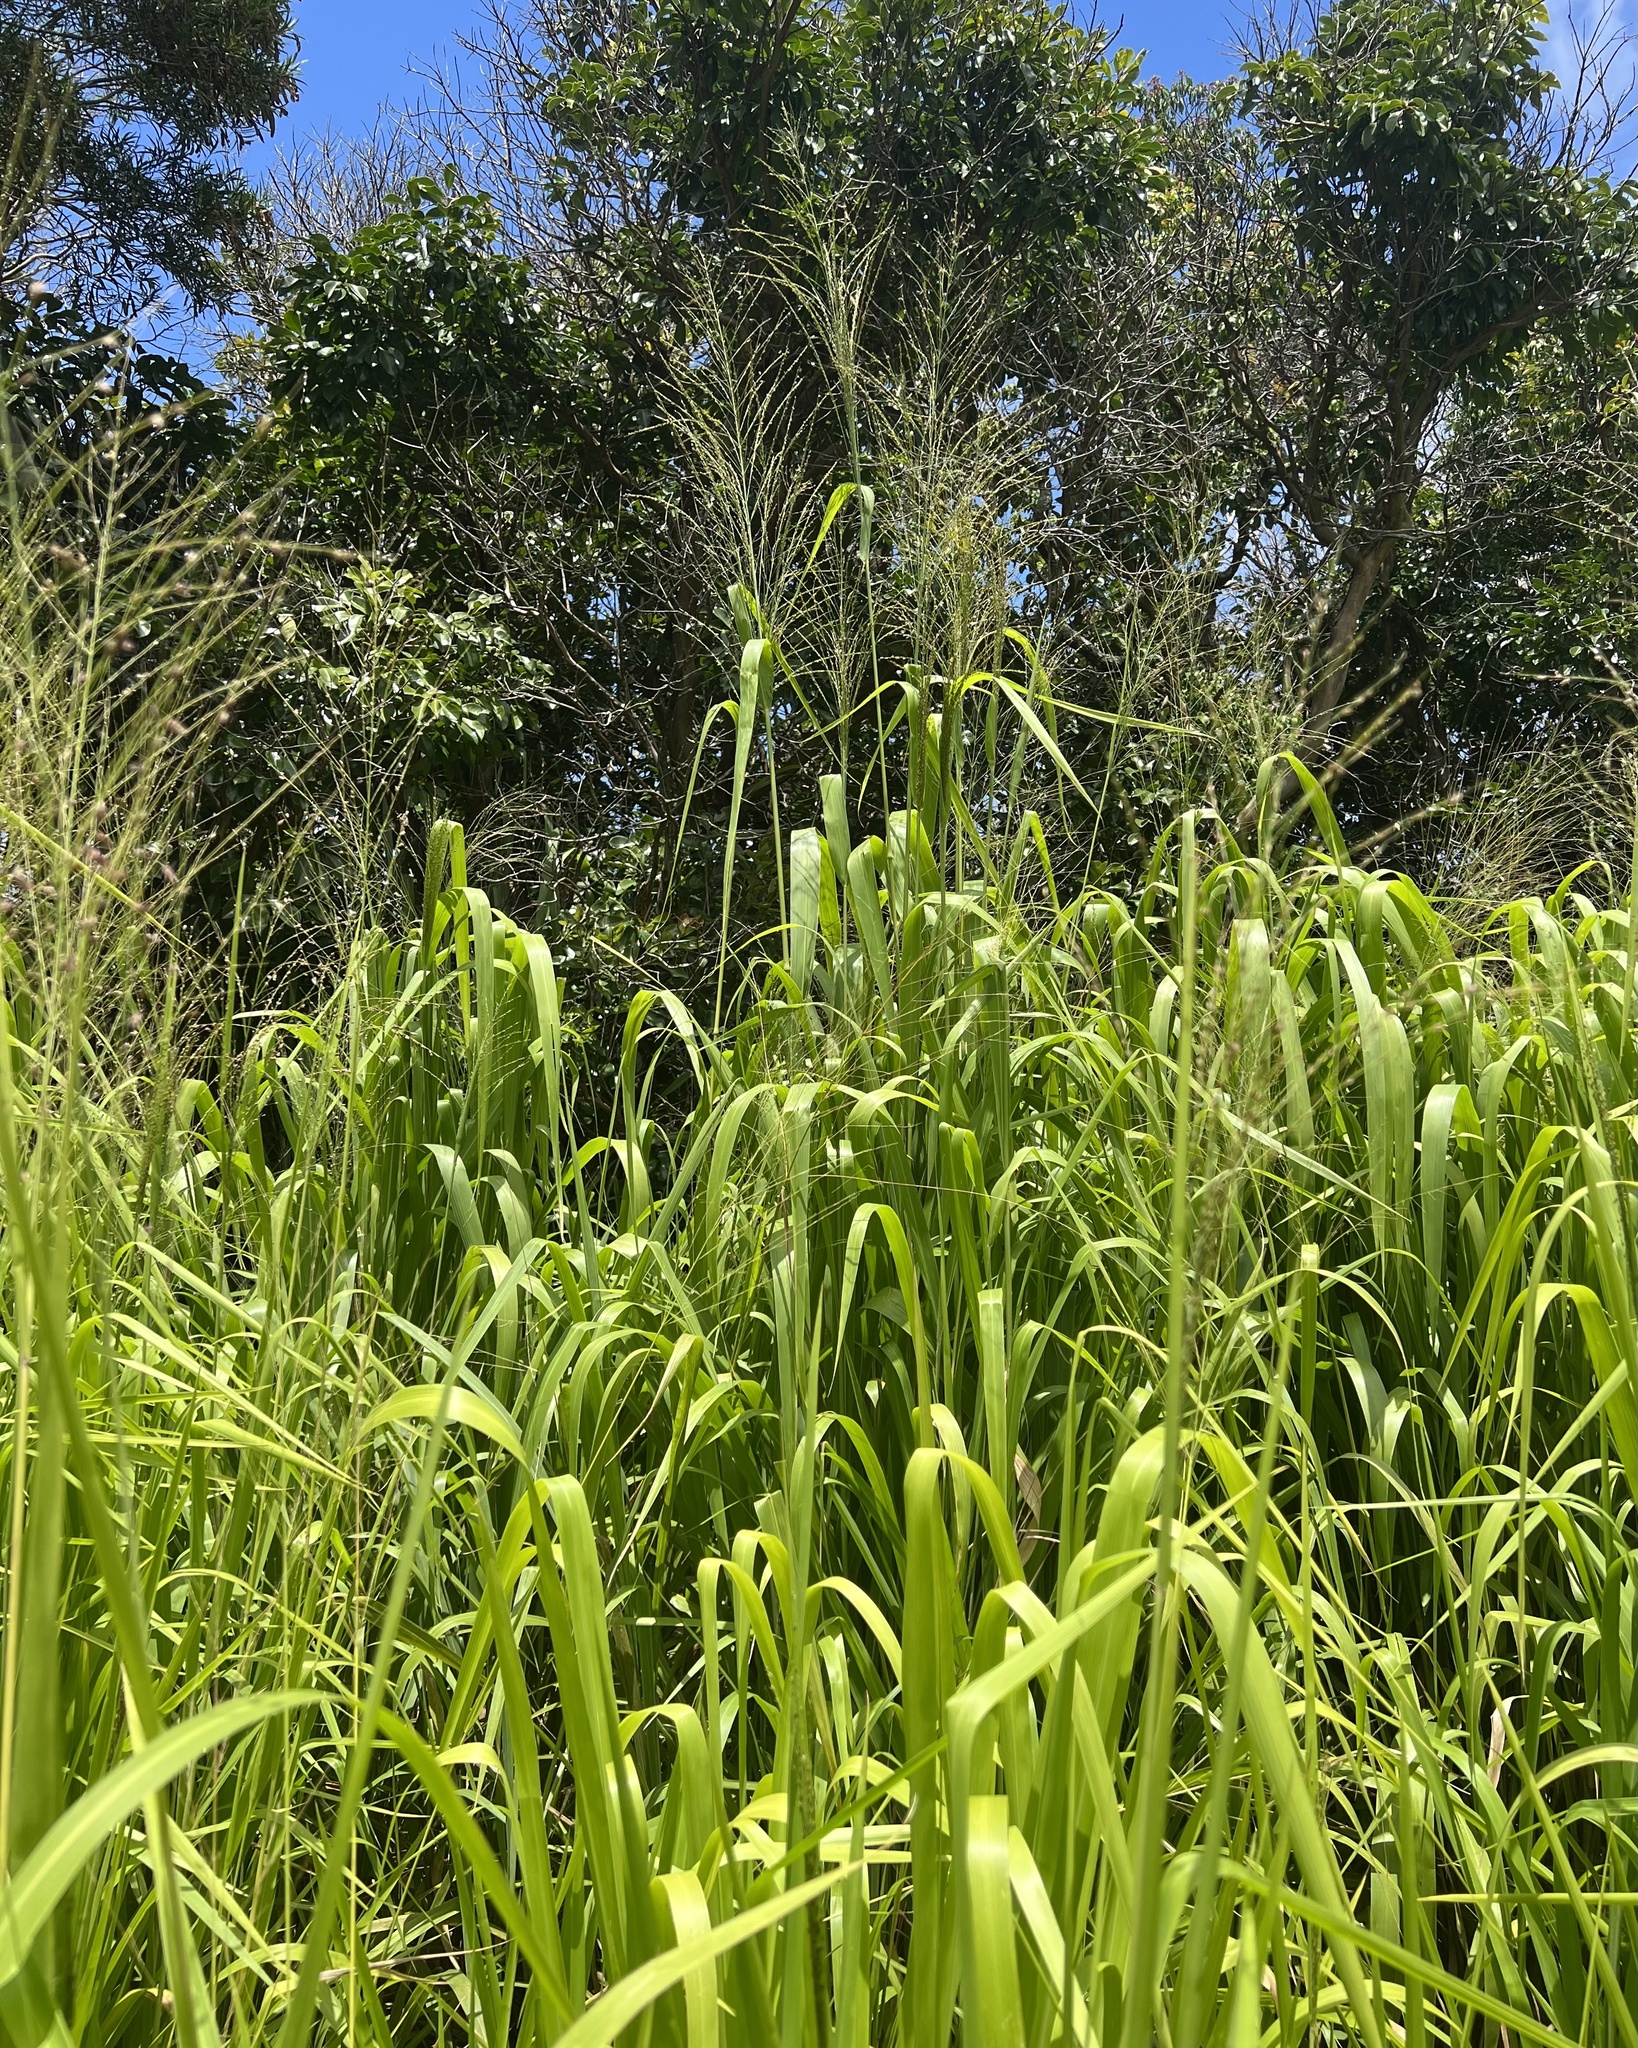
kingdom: Plantae
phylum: Tracheophyta
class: Liliopsida
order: Poales
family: Poaceae
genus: Megathyrsus
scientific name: Megathyrsus maximus
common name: Guineagrass
